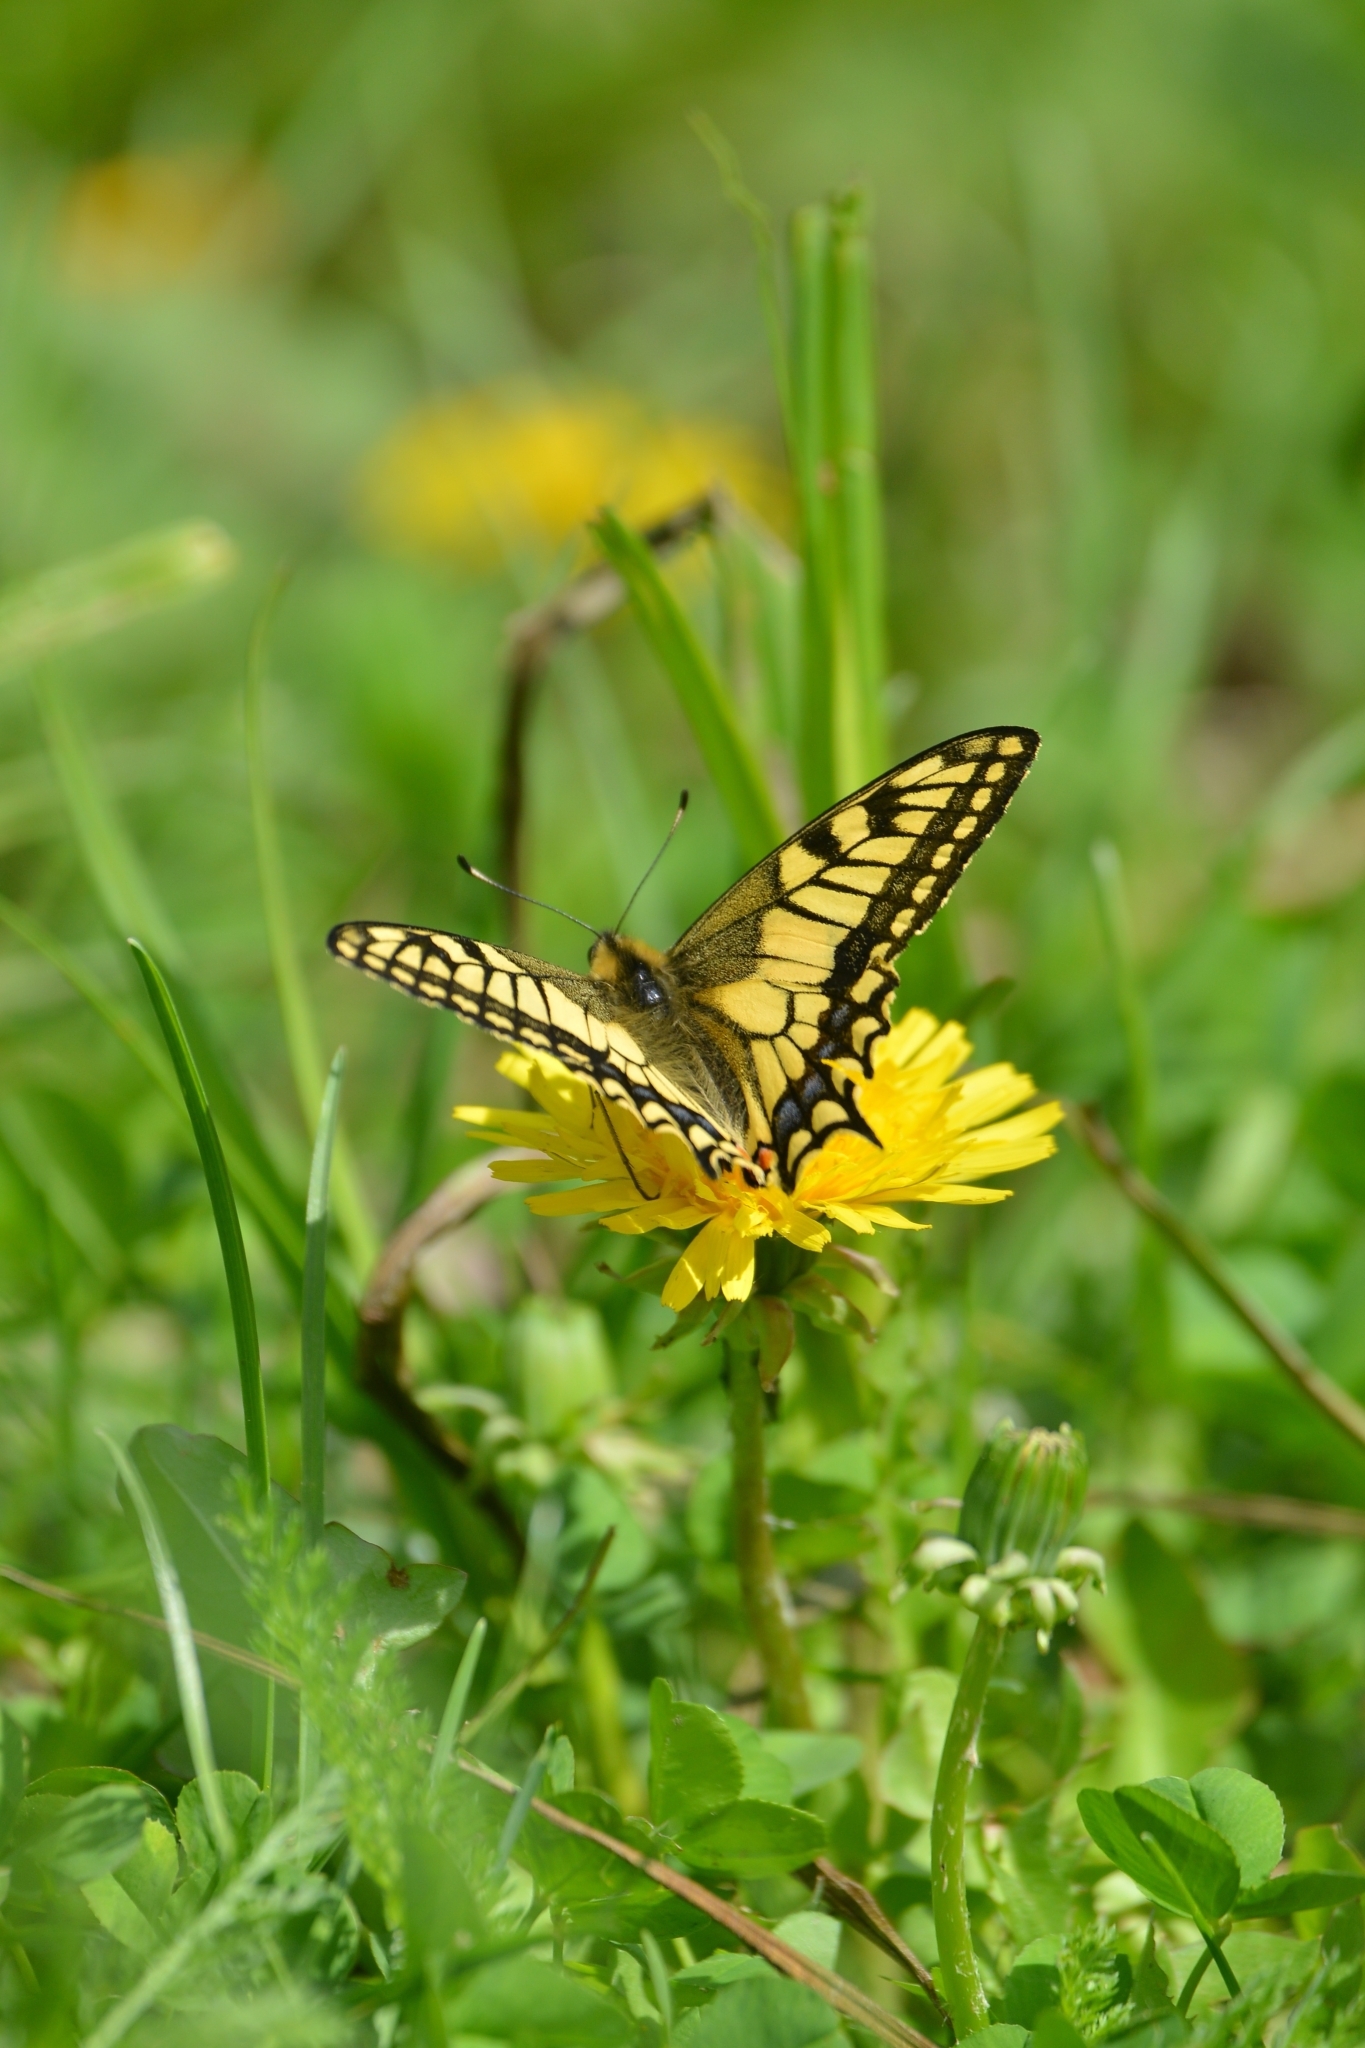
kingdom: Animalia
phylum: Arthropoda
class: Insecta
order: Lepidoptera
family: Papilionidae
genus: Papilio
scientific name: Papilio machaon
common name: Swallowtail
